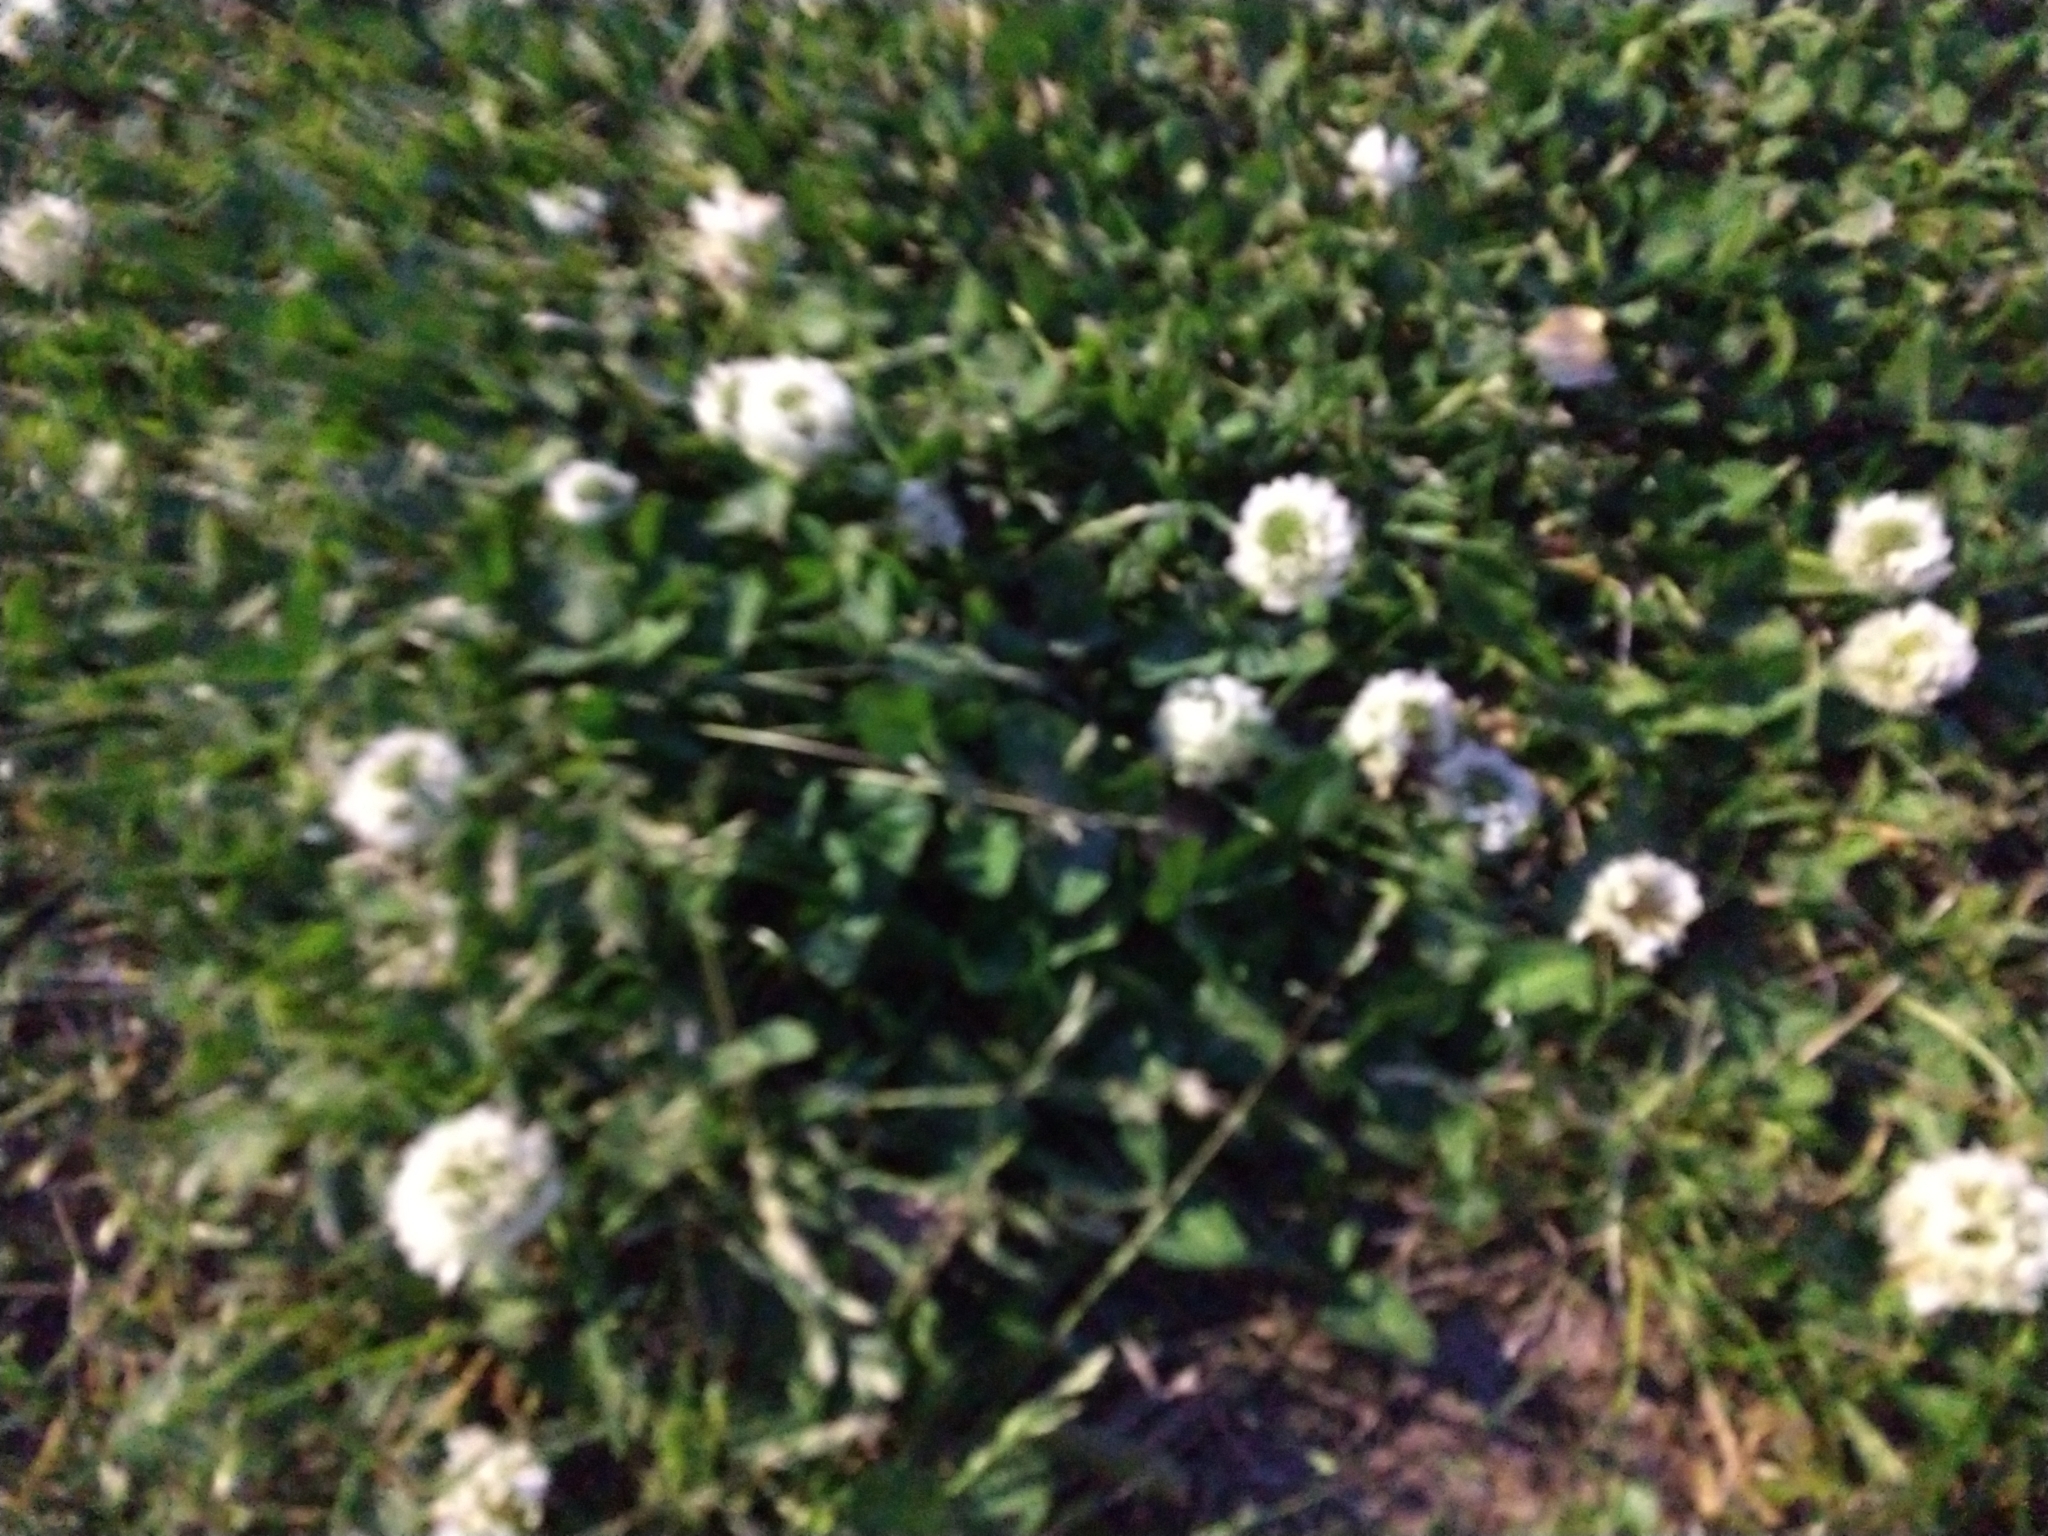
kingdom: Plantae
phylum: Tracheophyta
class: Magnoliopsida
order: Fabales
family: Fabaceae
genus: Trifolium
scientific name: Trifolium repens
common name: White clover
